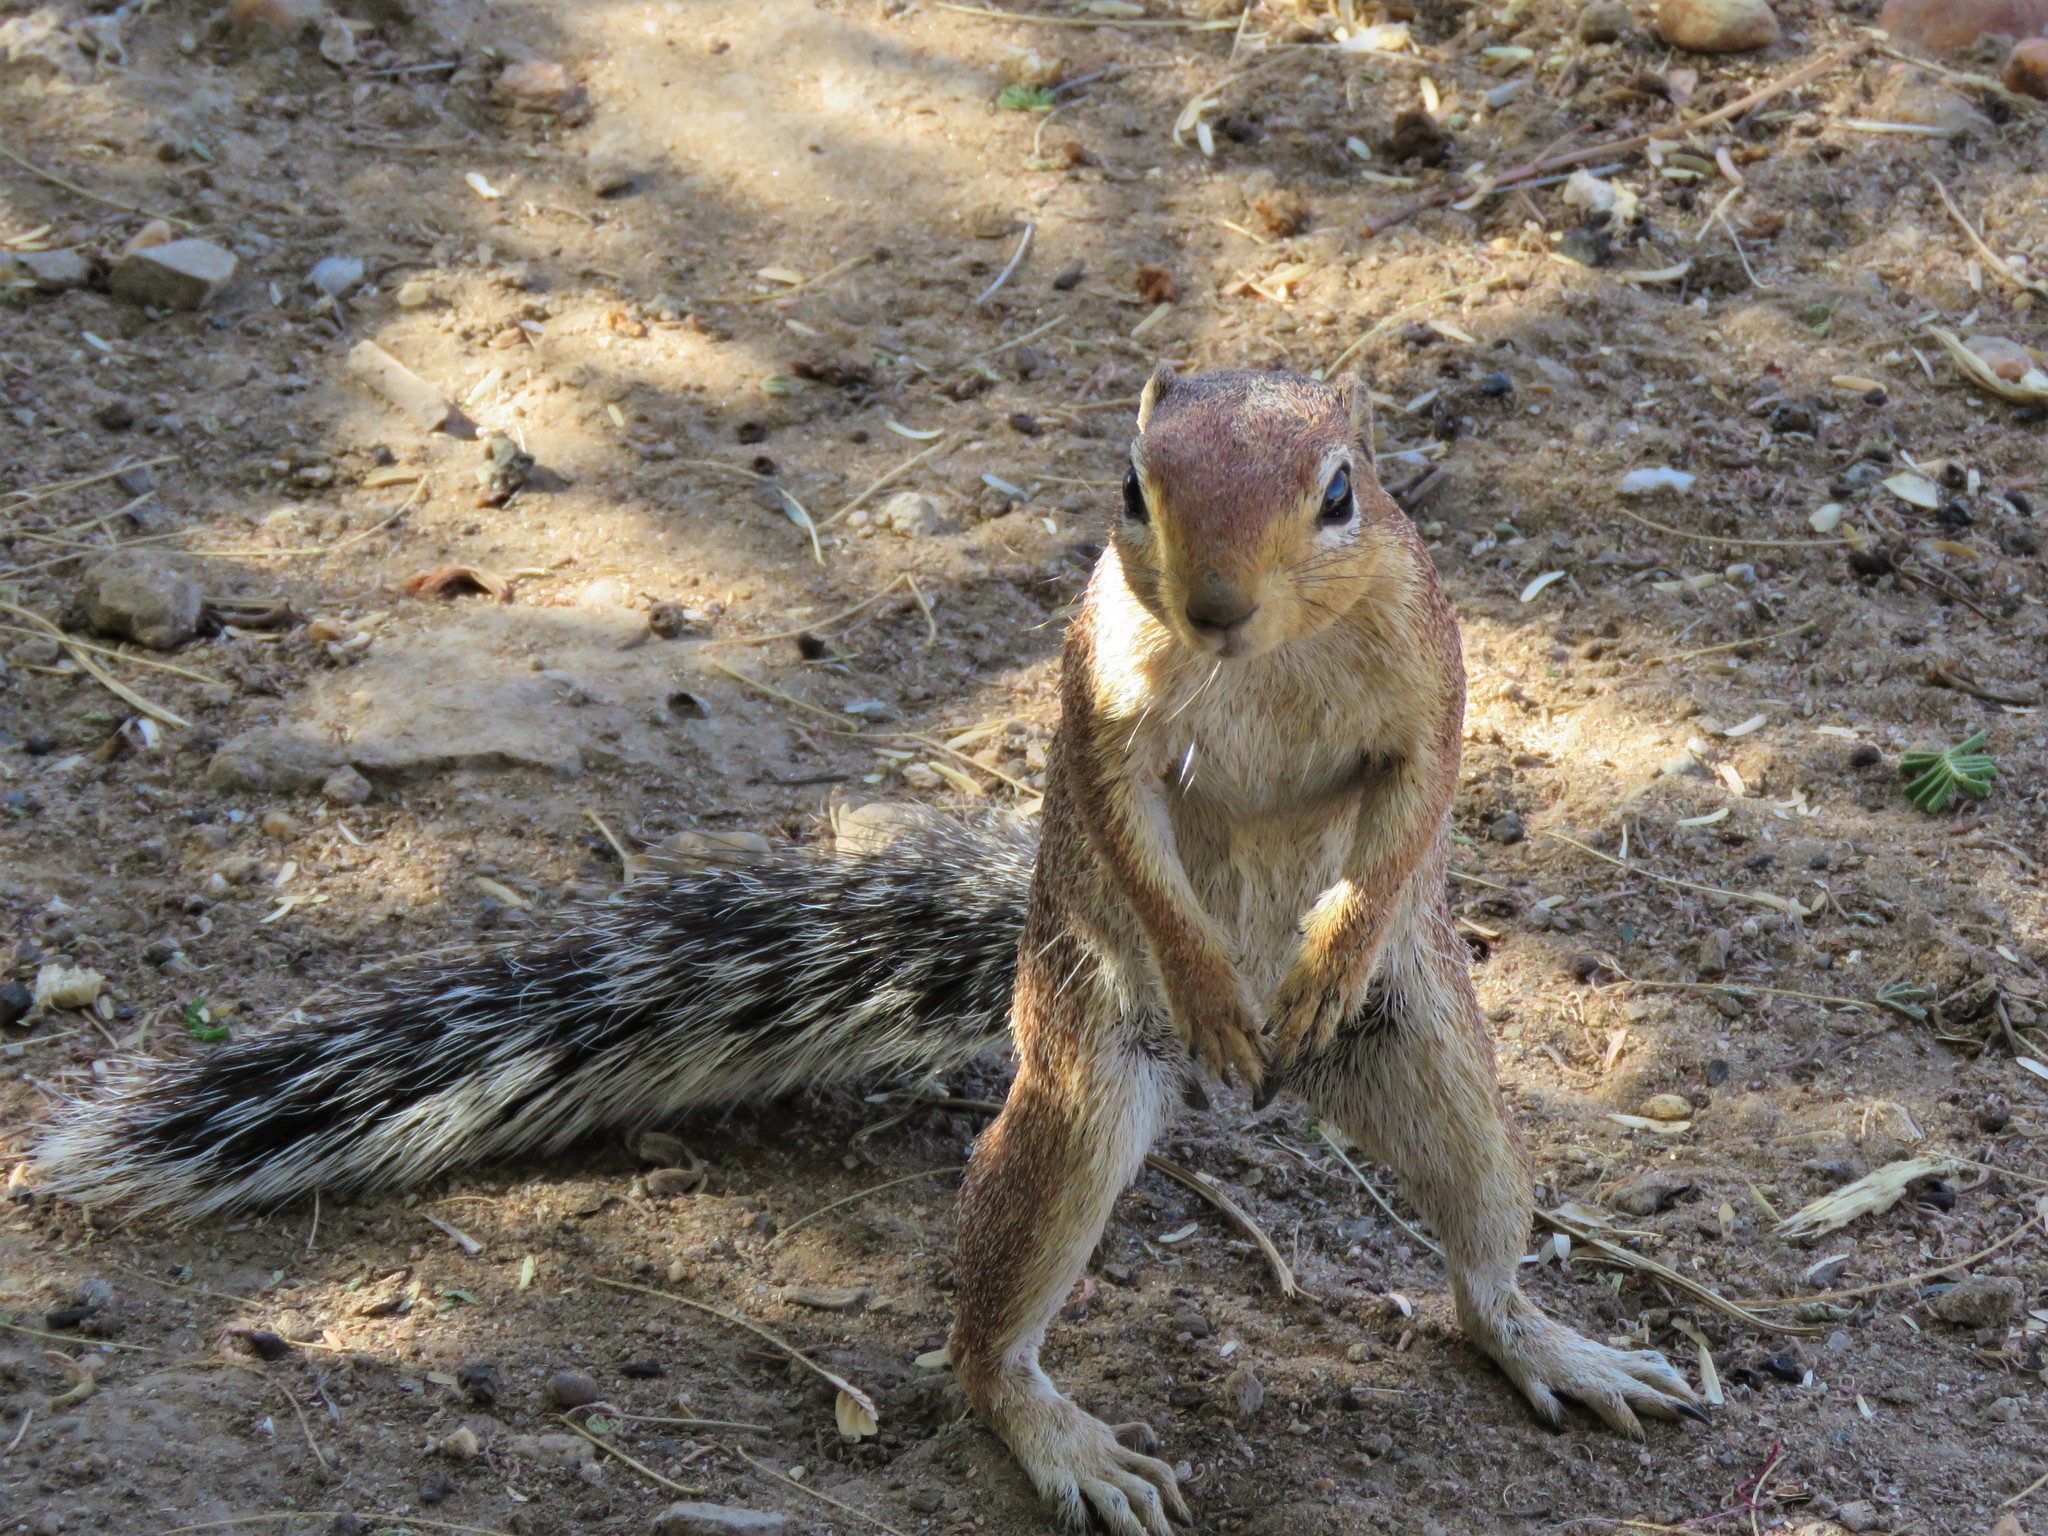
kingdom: Animalia
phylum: Chordata
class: Mammalia
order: Rodentia
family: Sciuridae
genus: Xerus
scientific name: Xerus rutilus
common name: Unstriped ground squirrel
